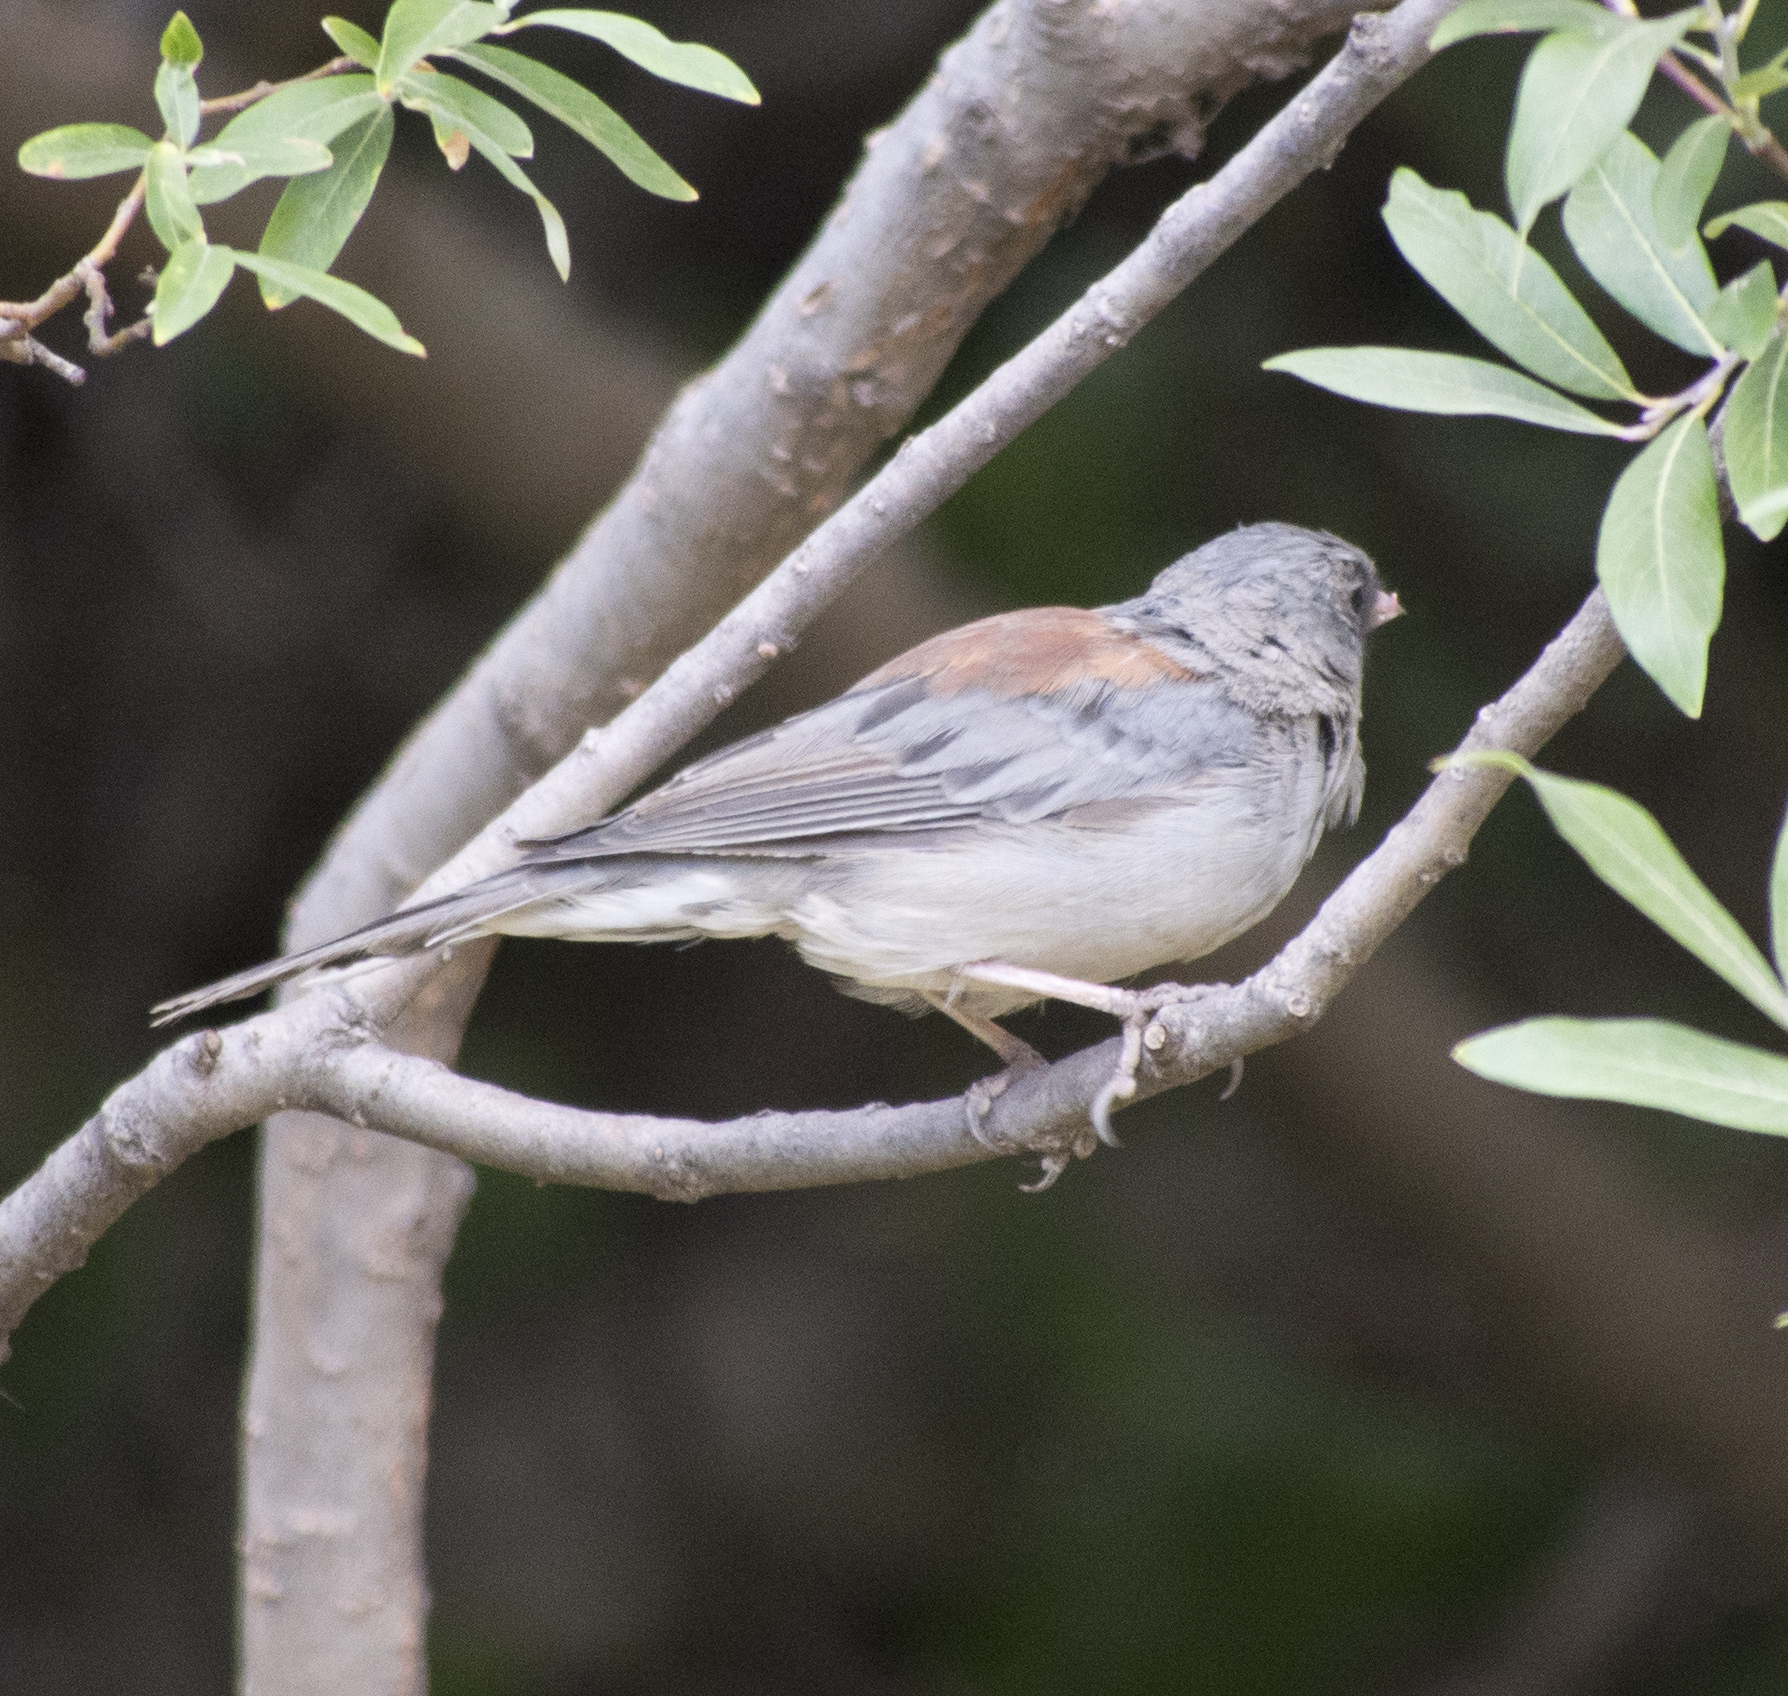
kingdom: Animalia
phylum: Chordata
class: Aves
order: Passeriformes
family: Passerellidae
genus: Junco
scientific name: Junco hyemalis
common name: Dark-eyed junco
